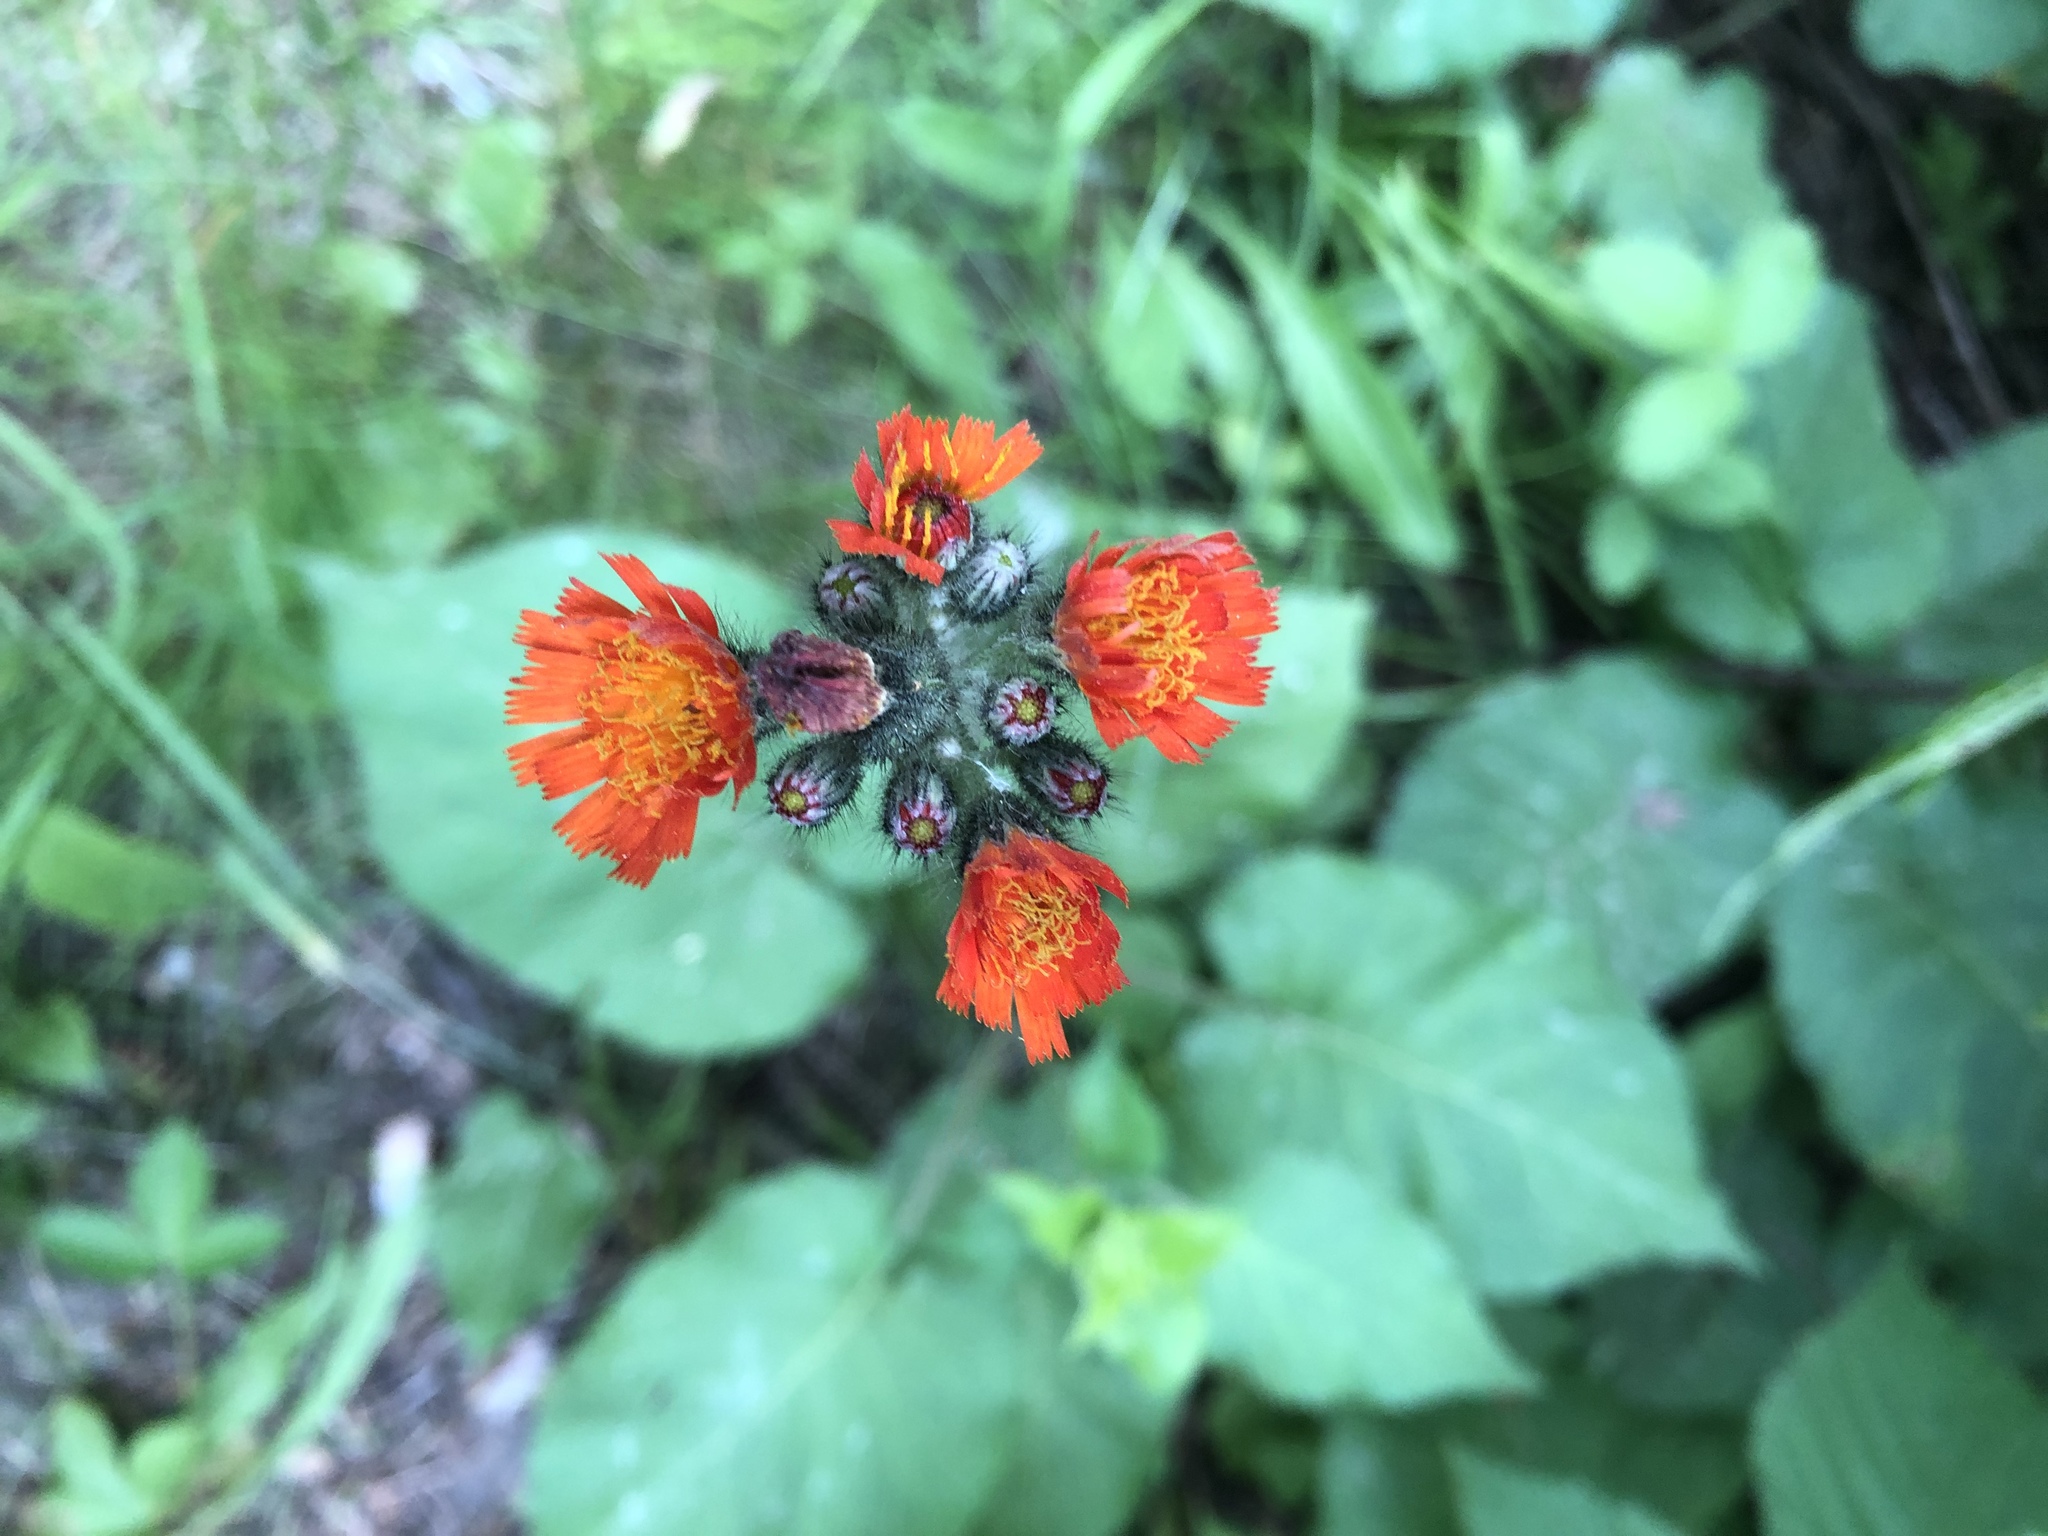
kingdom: Plantae
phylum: Tracheophyta
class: Magnoliopsida
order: Asterales
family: Asteraceae
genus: Pilosella
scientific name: Pilosella aurantiaca
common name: Fox-and-cubs
